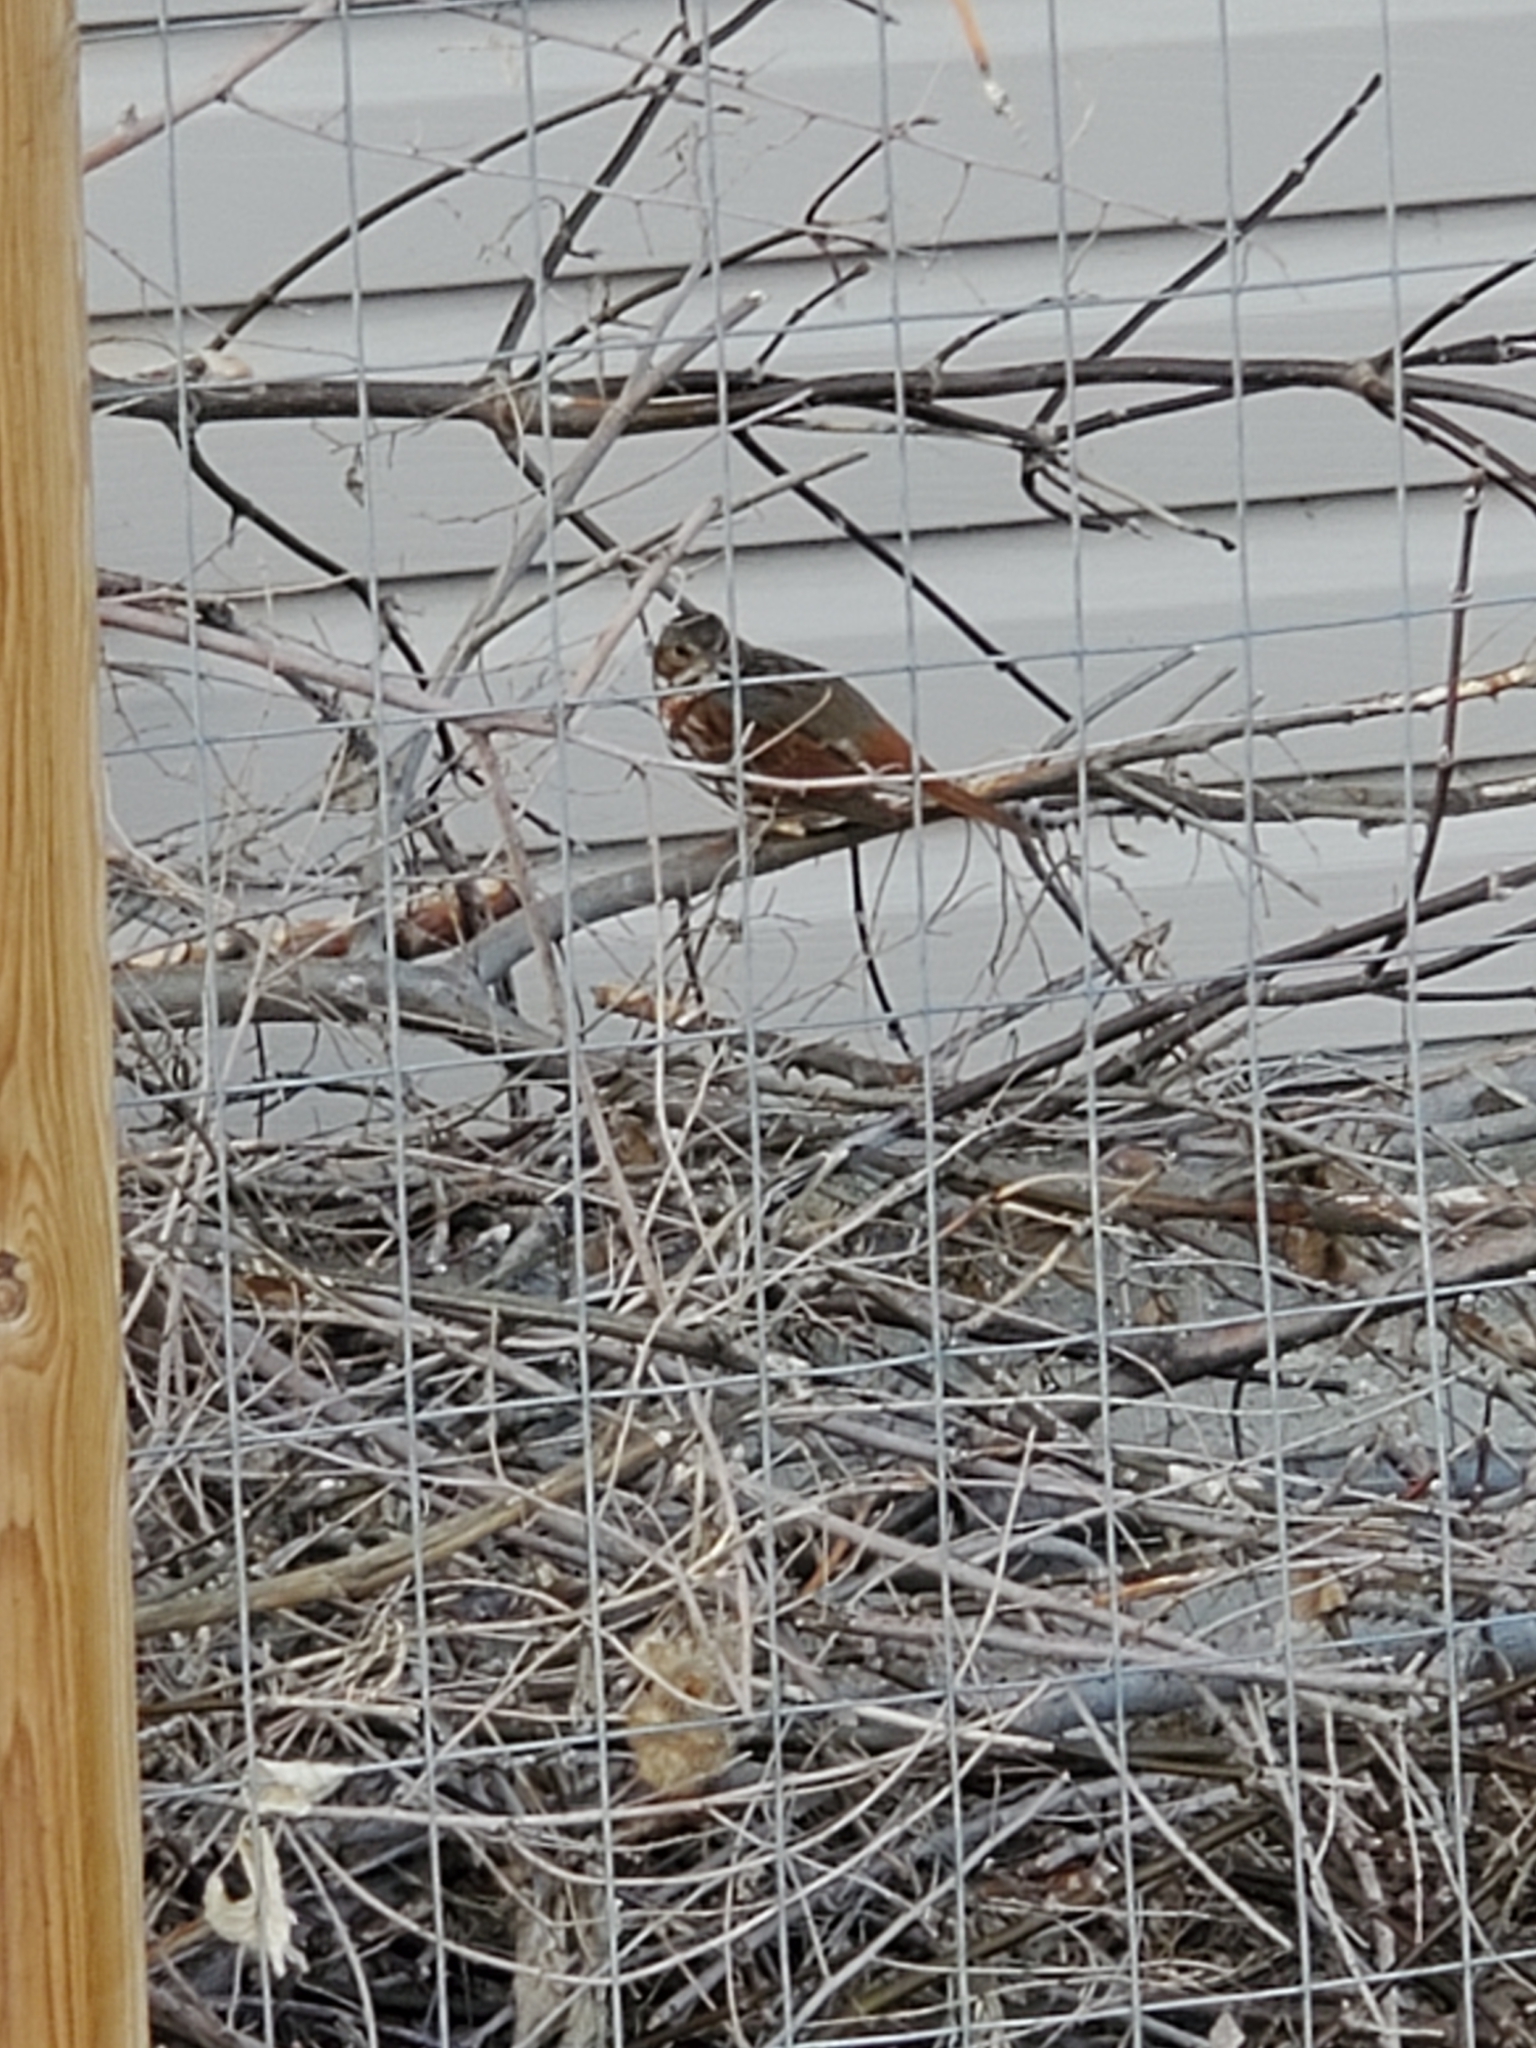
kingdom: Animalia
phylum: Chordata
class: Aves
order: Passeriformes
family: Passerellidae
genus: Passerella
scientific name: Passerella iliaca
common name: Fox sparrow
